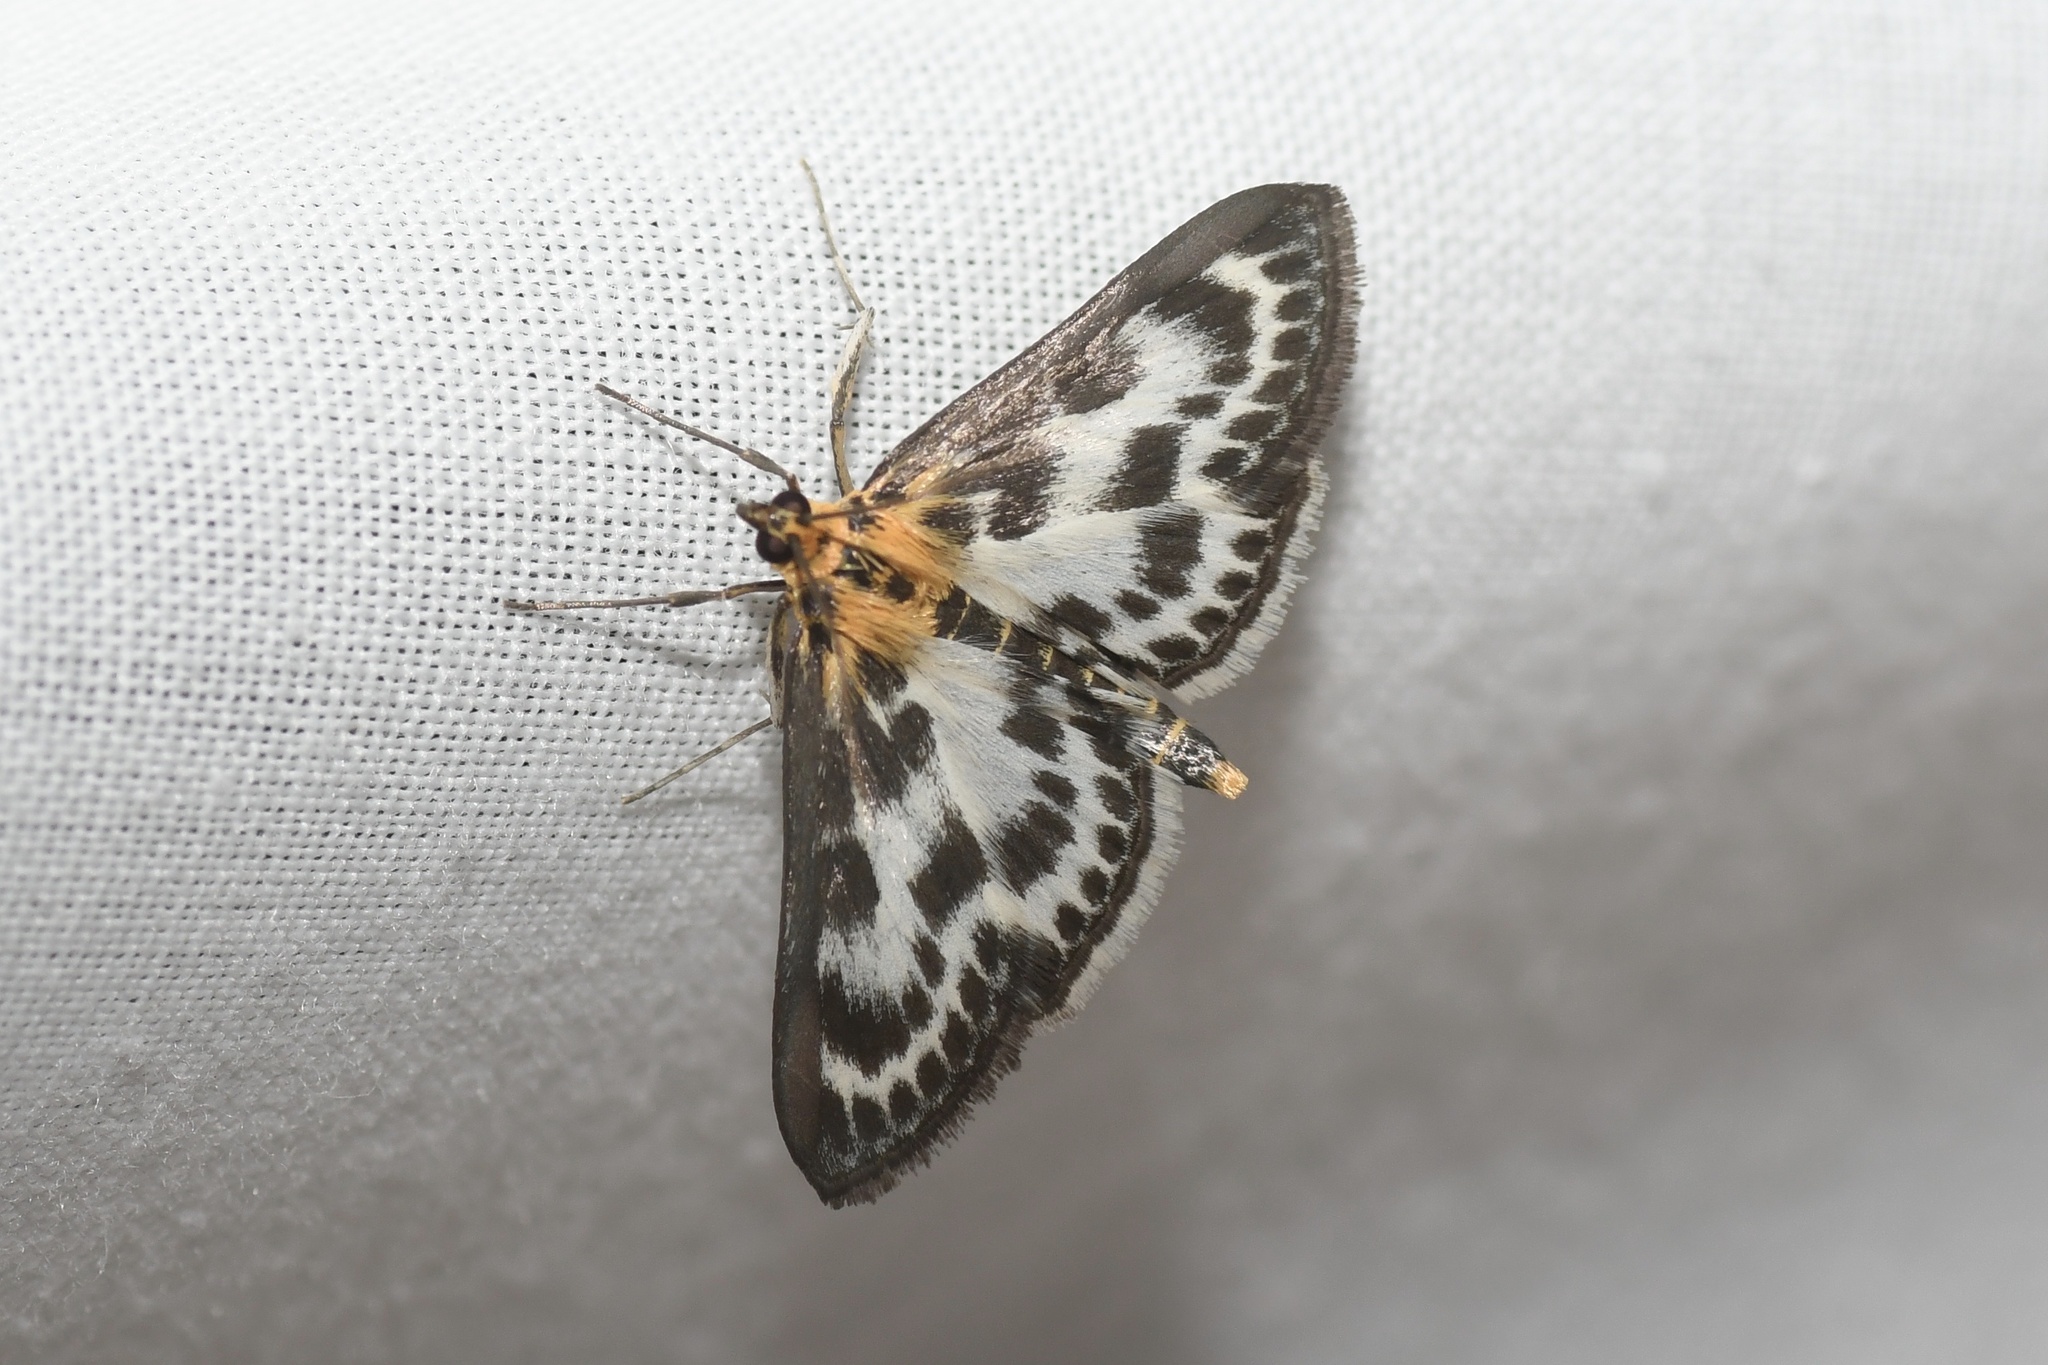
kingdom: Animalia
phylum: Arthropoda
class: Insecta
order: Lepidoptera
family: Crambidae
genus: Anania
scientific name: Anania hortulata
